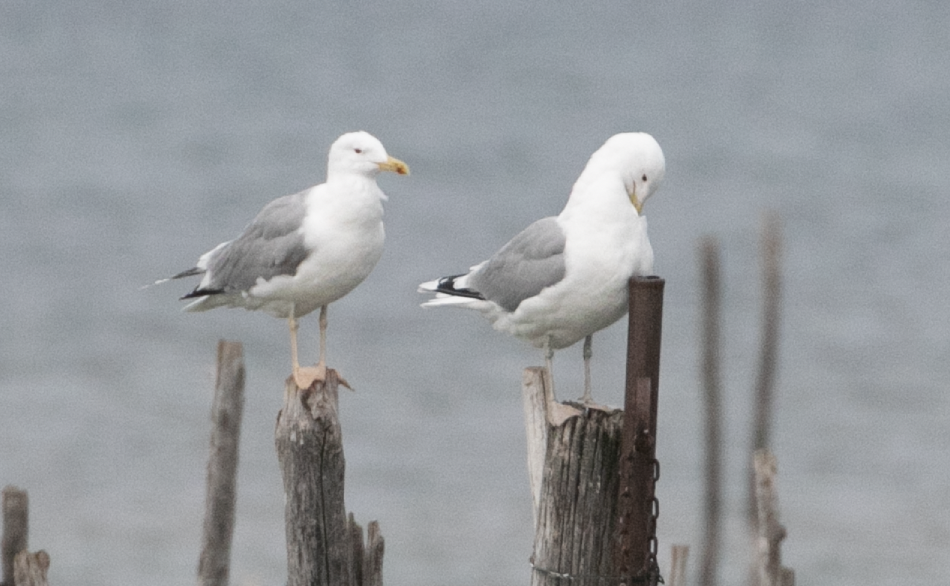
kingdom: Animalia
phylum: Chordata
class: Aves
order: Charadriiformes
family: Laridae
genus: Larus
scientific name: Larus cachinnans
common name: Caspian gull
